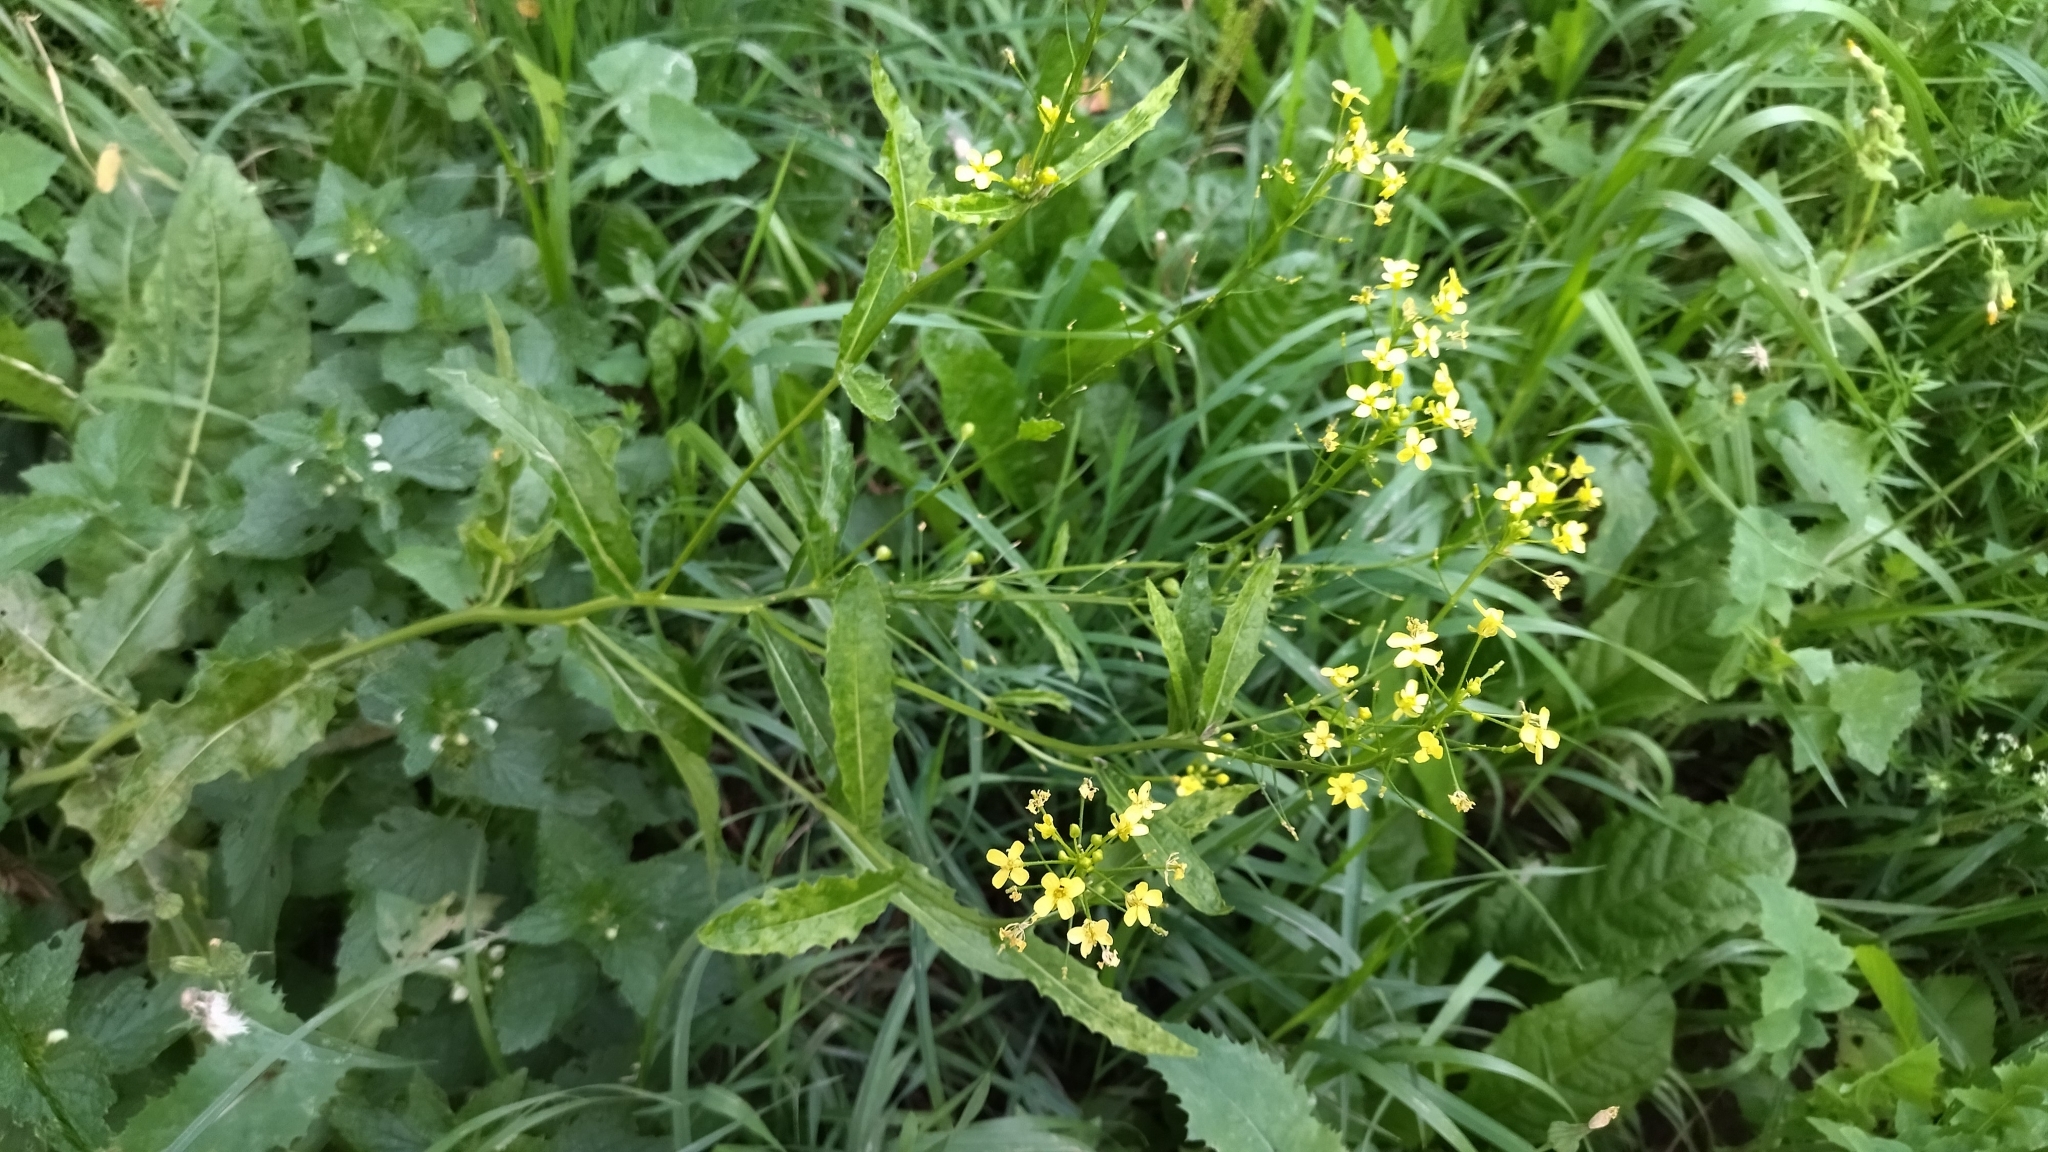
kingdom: Plantae
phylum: Tracheophyta
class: Magnoliopsida
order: Brassicales
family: Brassicaceae
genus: Bunias
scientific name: Bunias orientalis
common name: Warty-cabbage
